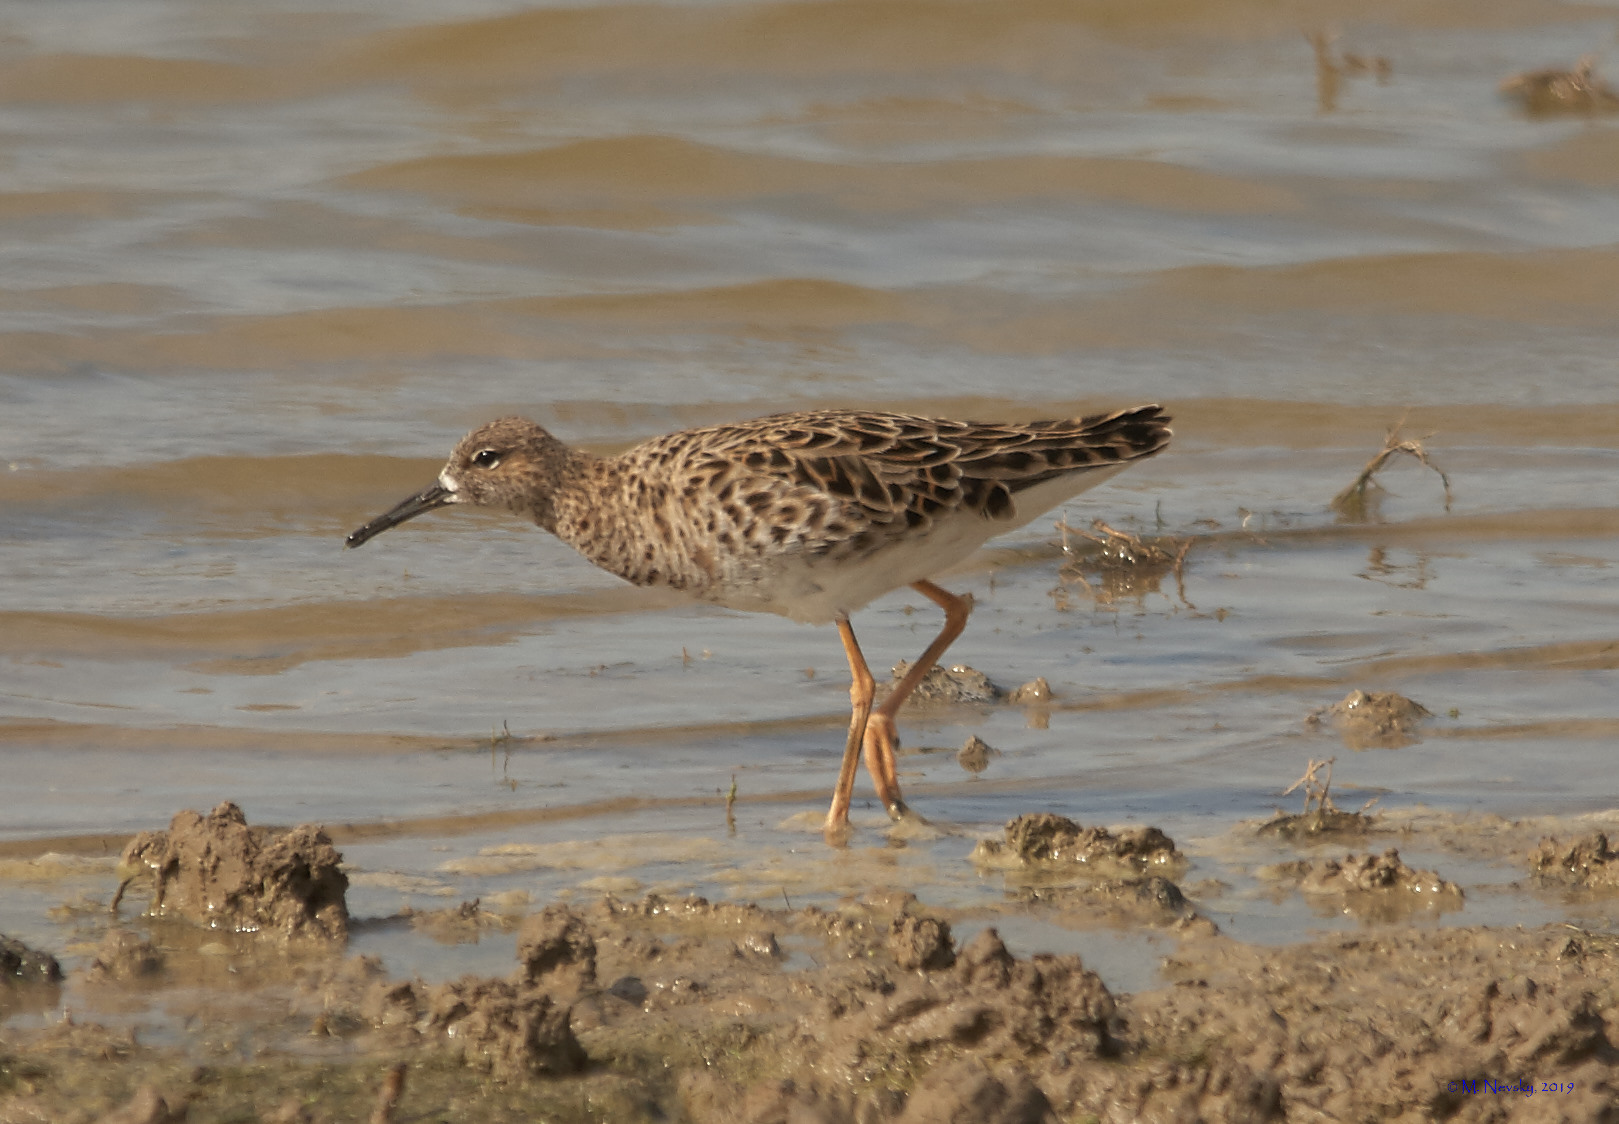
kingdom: Animalia
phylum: Chordata
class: Aves
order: Charadriiformes
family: Scolopacidae
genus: Calidris
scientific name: Calidris pugnax
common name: Ruff
